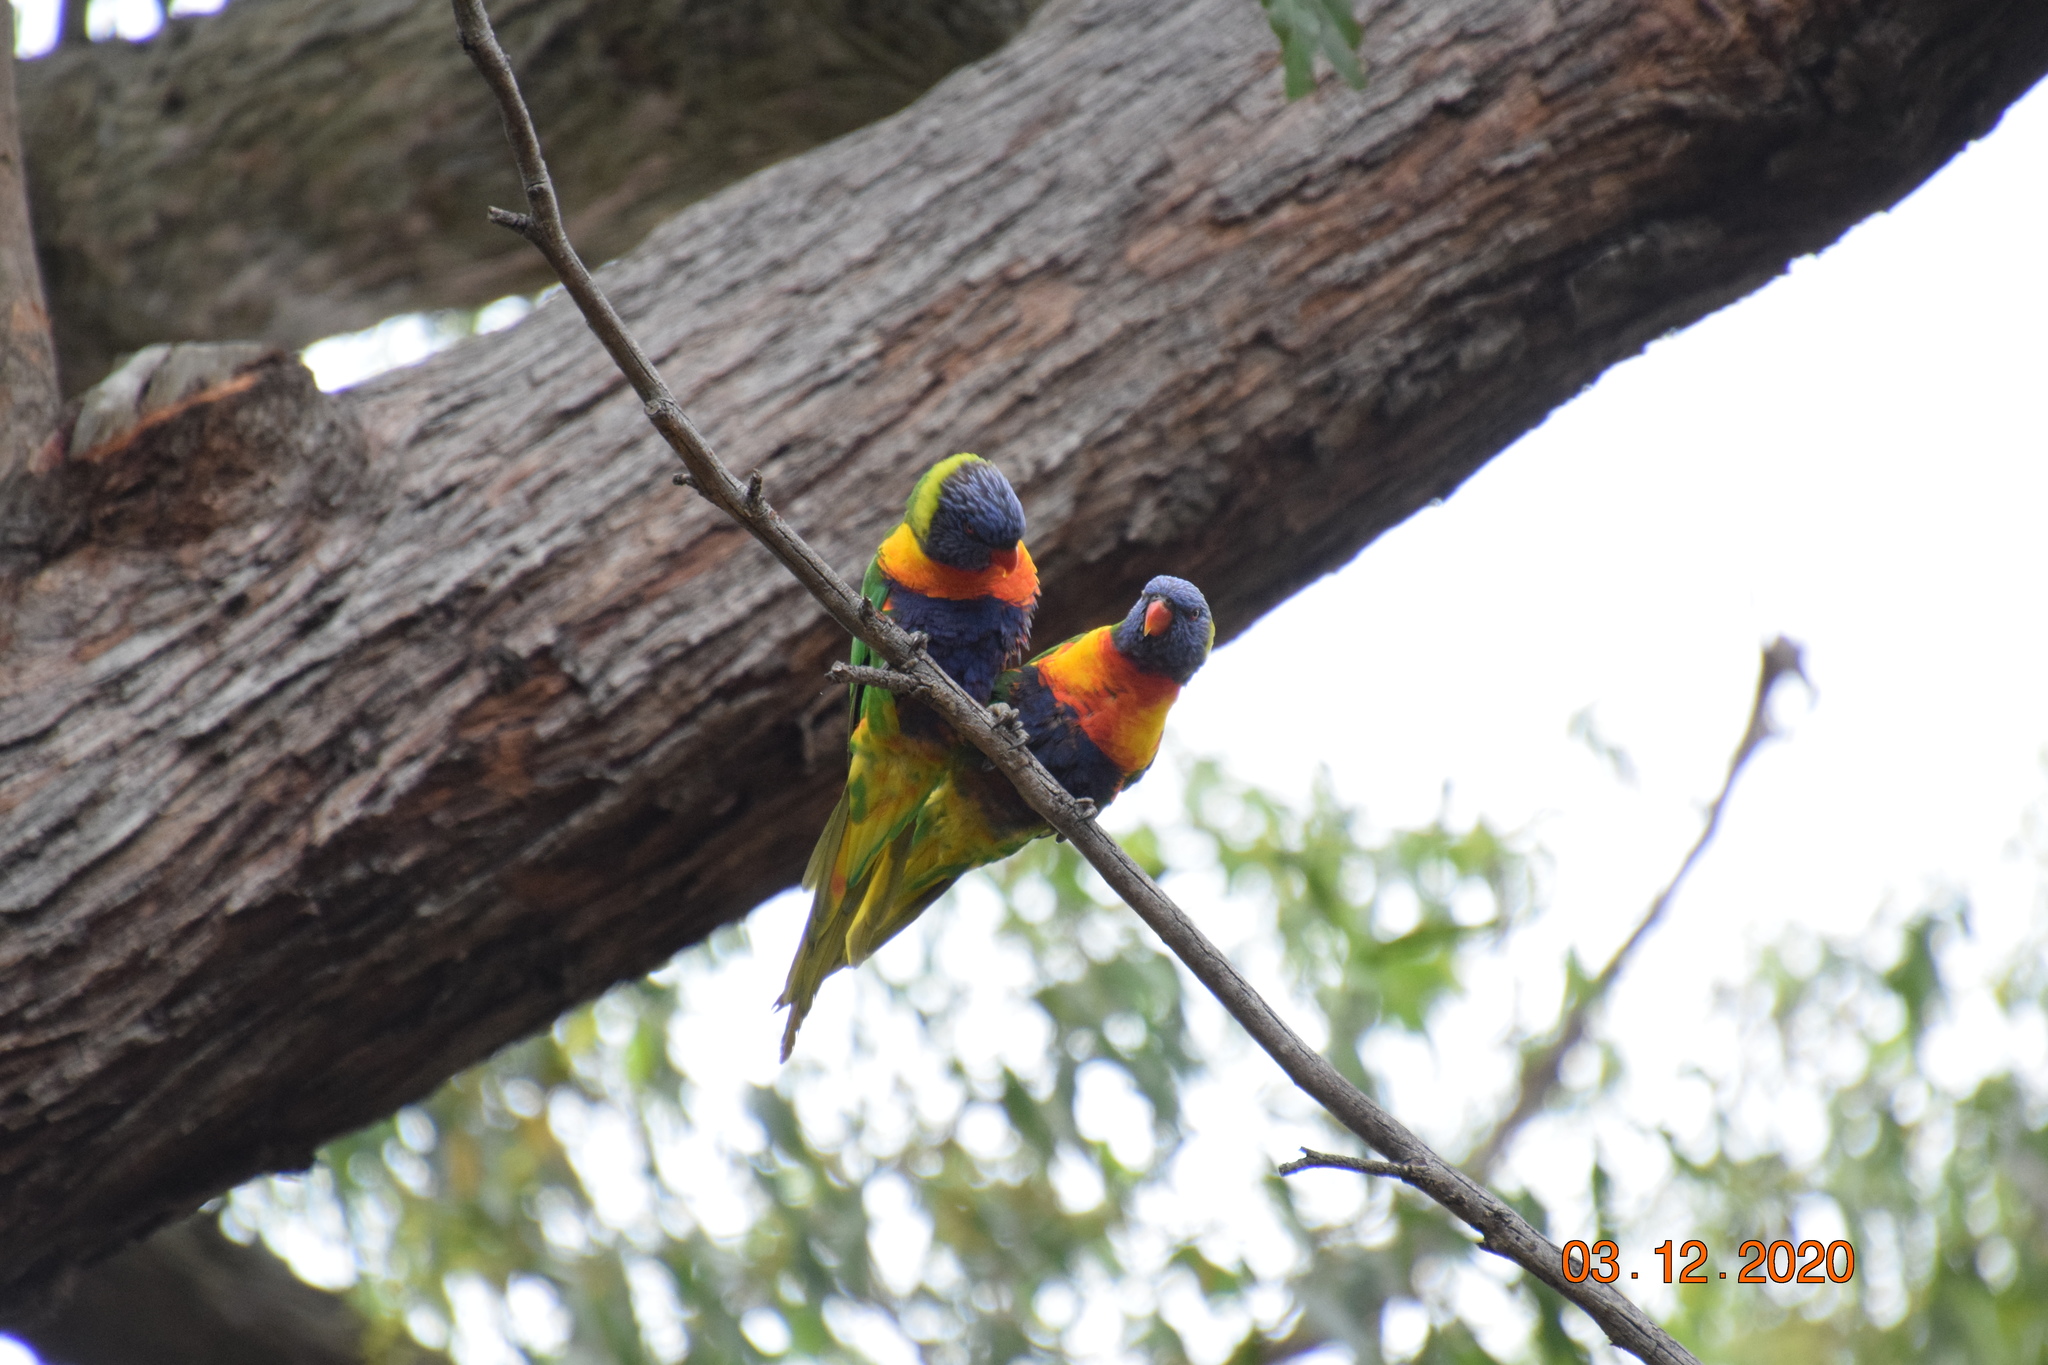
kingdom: Animalia
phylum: Chordata
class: Aves
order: Psittaciformes
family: Psittacidae
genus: Trichoglossus
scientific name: Trichoglossus haematodus
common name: Coconut lorikeet
